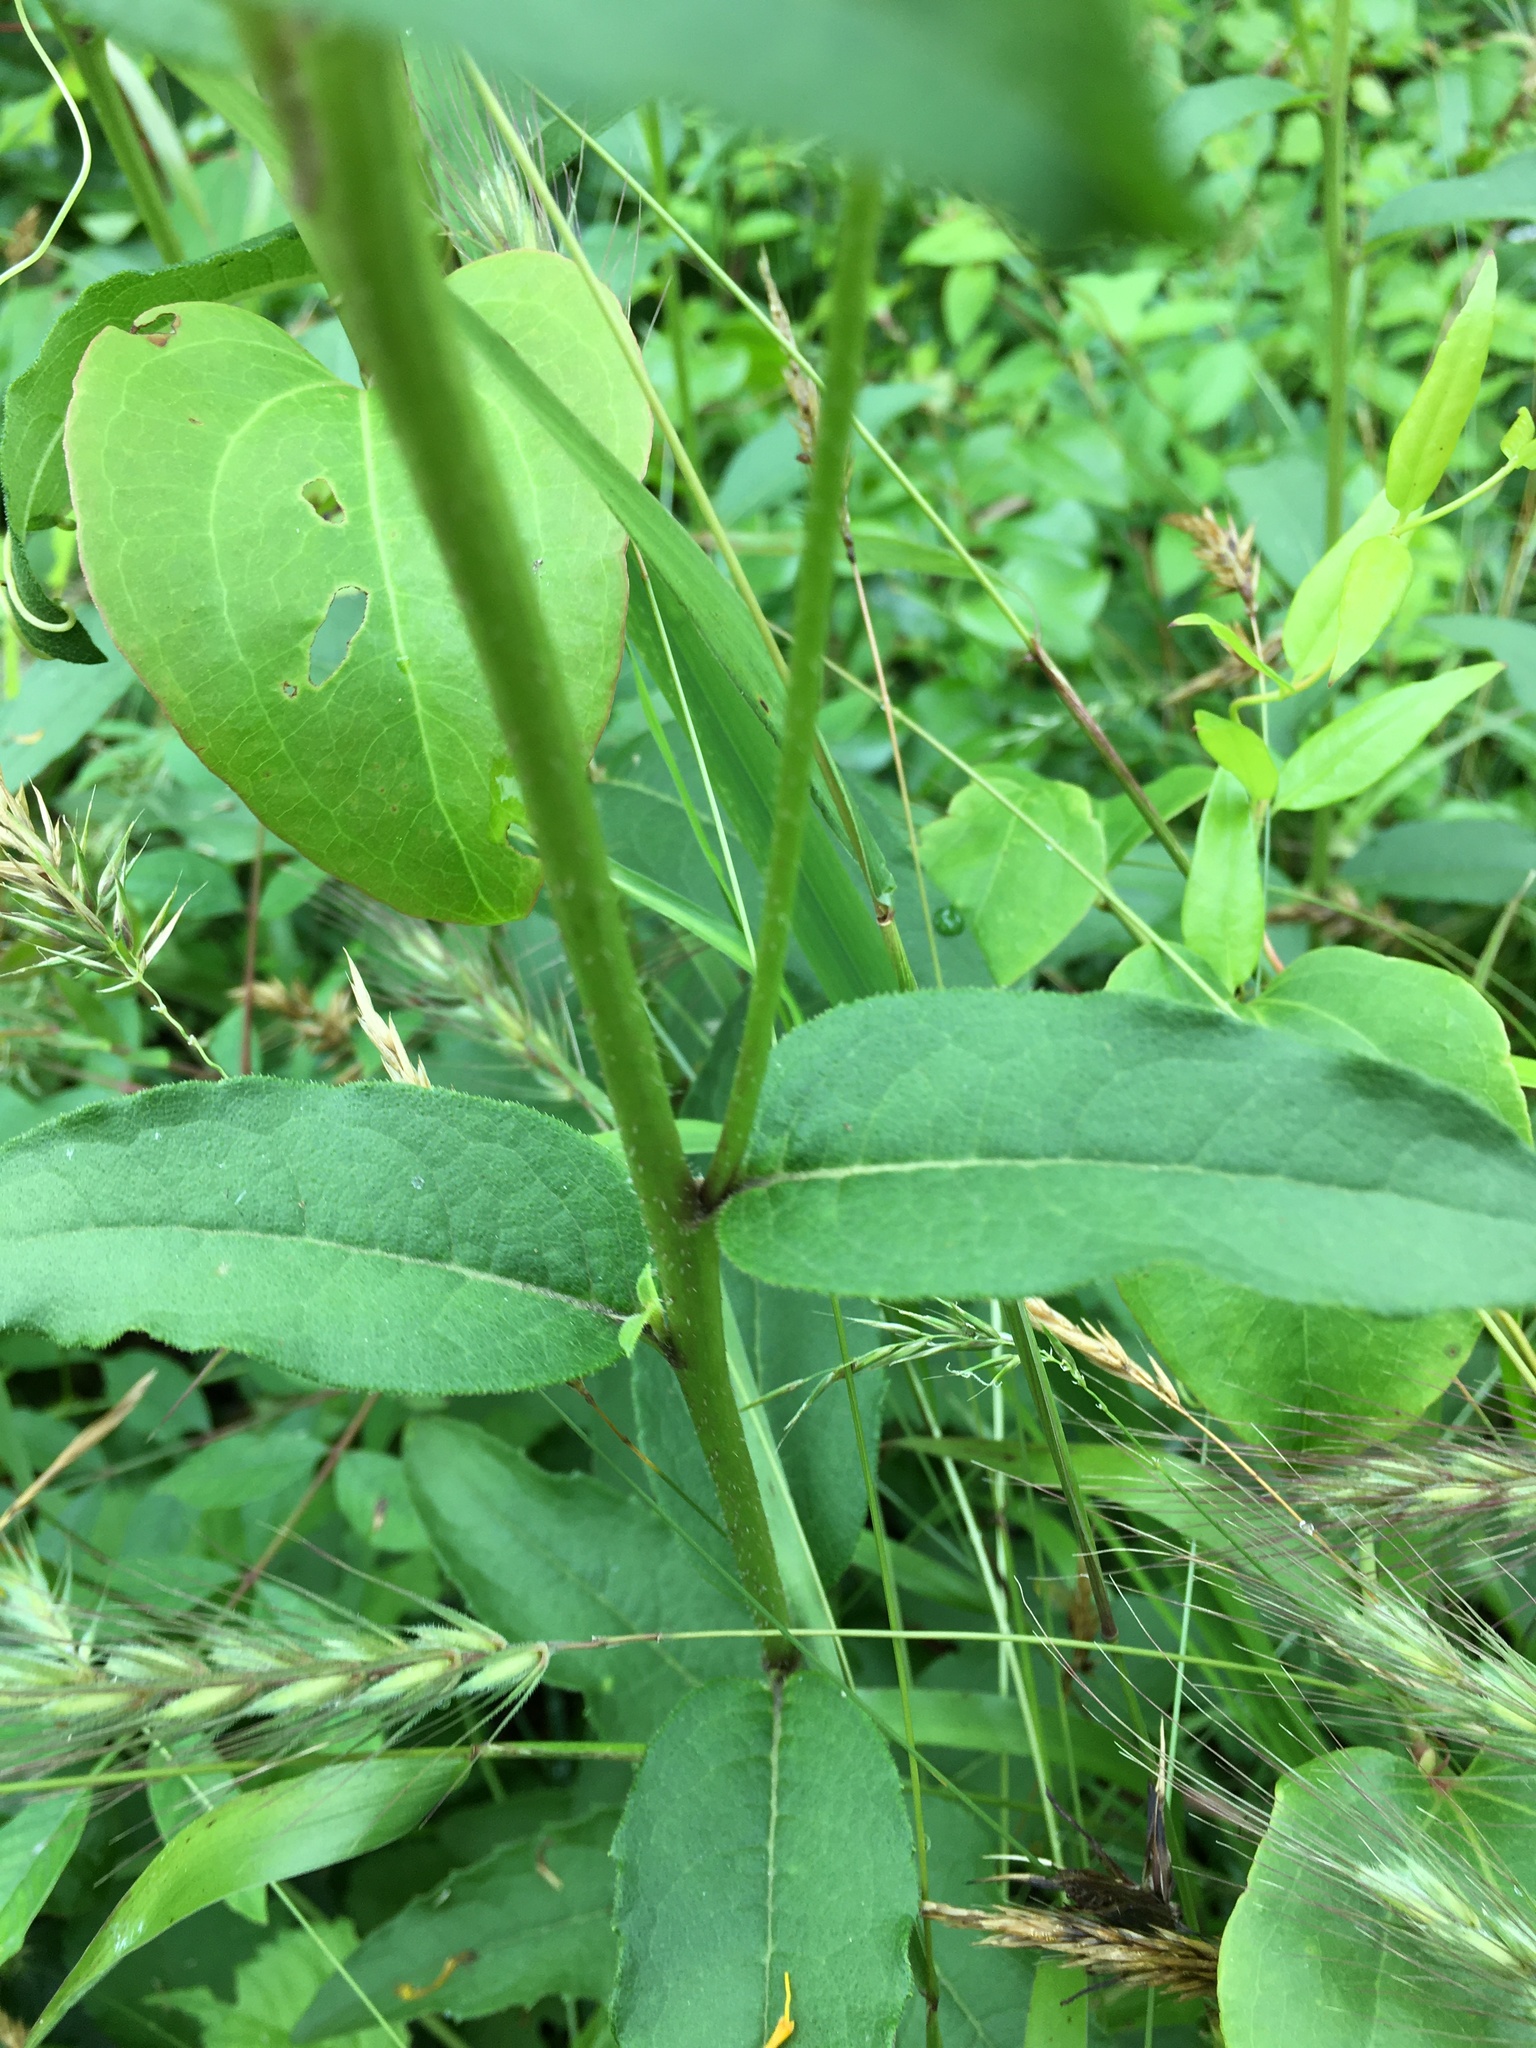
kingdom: Plantae
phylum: Tracheophyta
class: Magnoliopsida
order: Asterales
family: Asteraceae
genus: Silphium
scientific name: Silphium asteriscus
